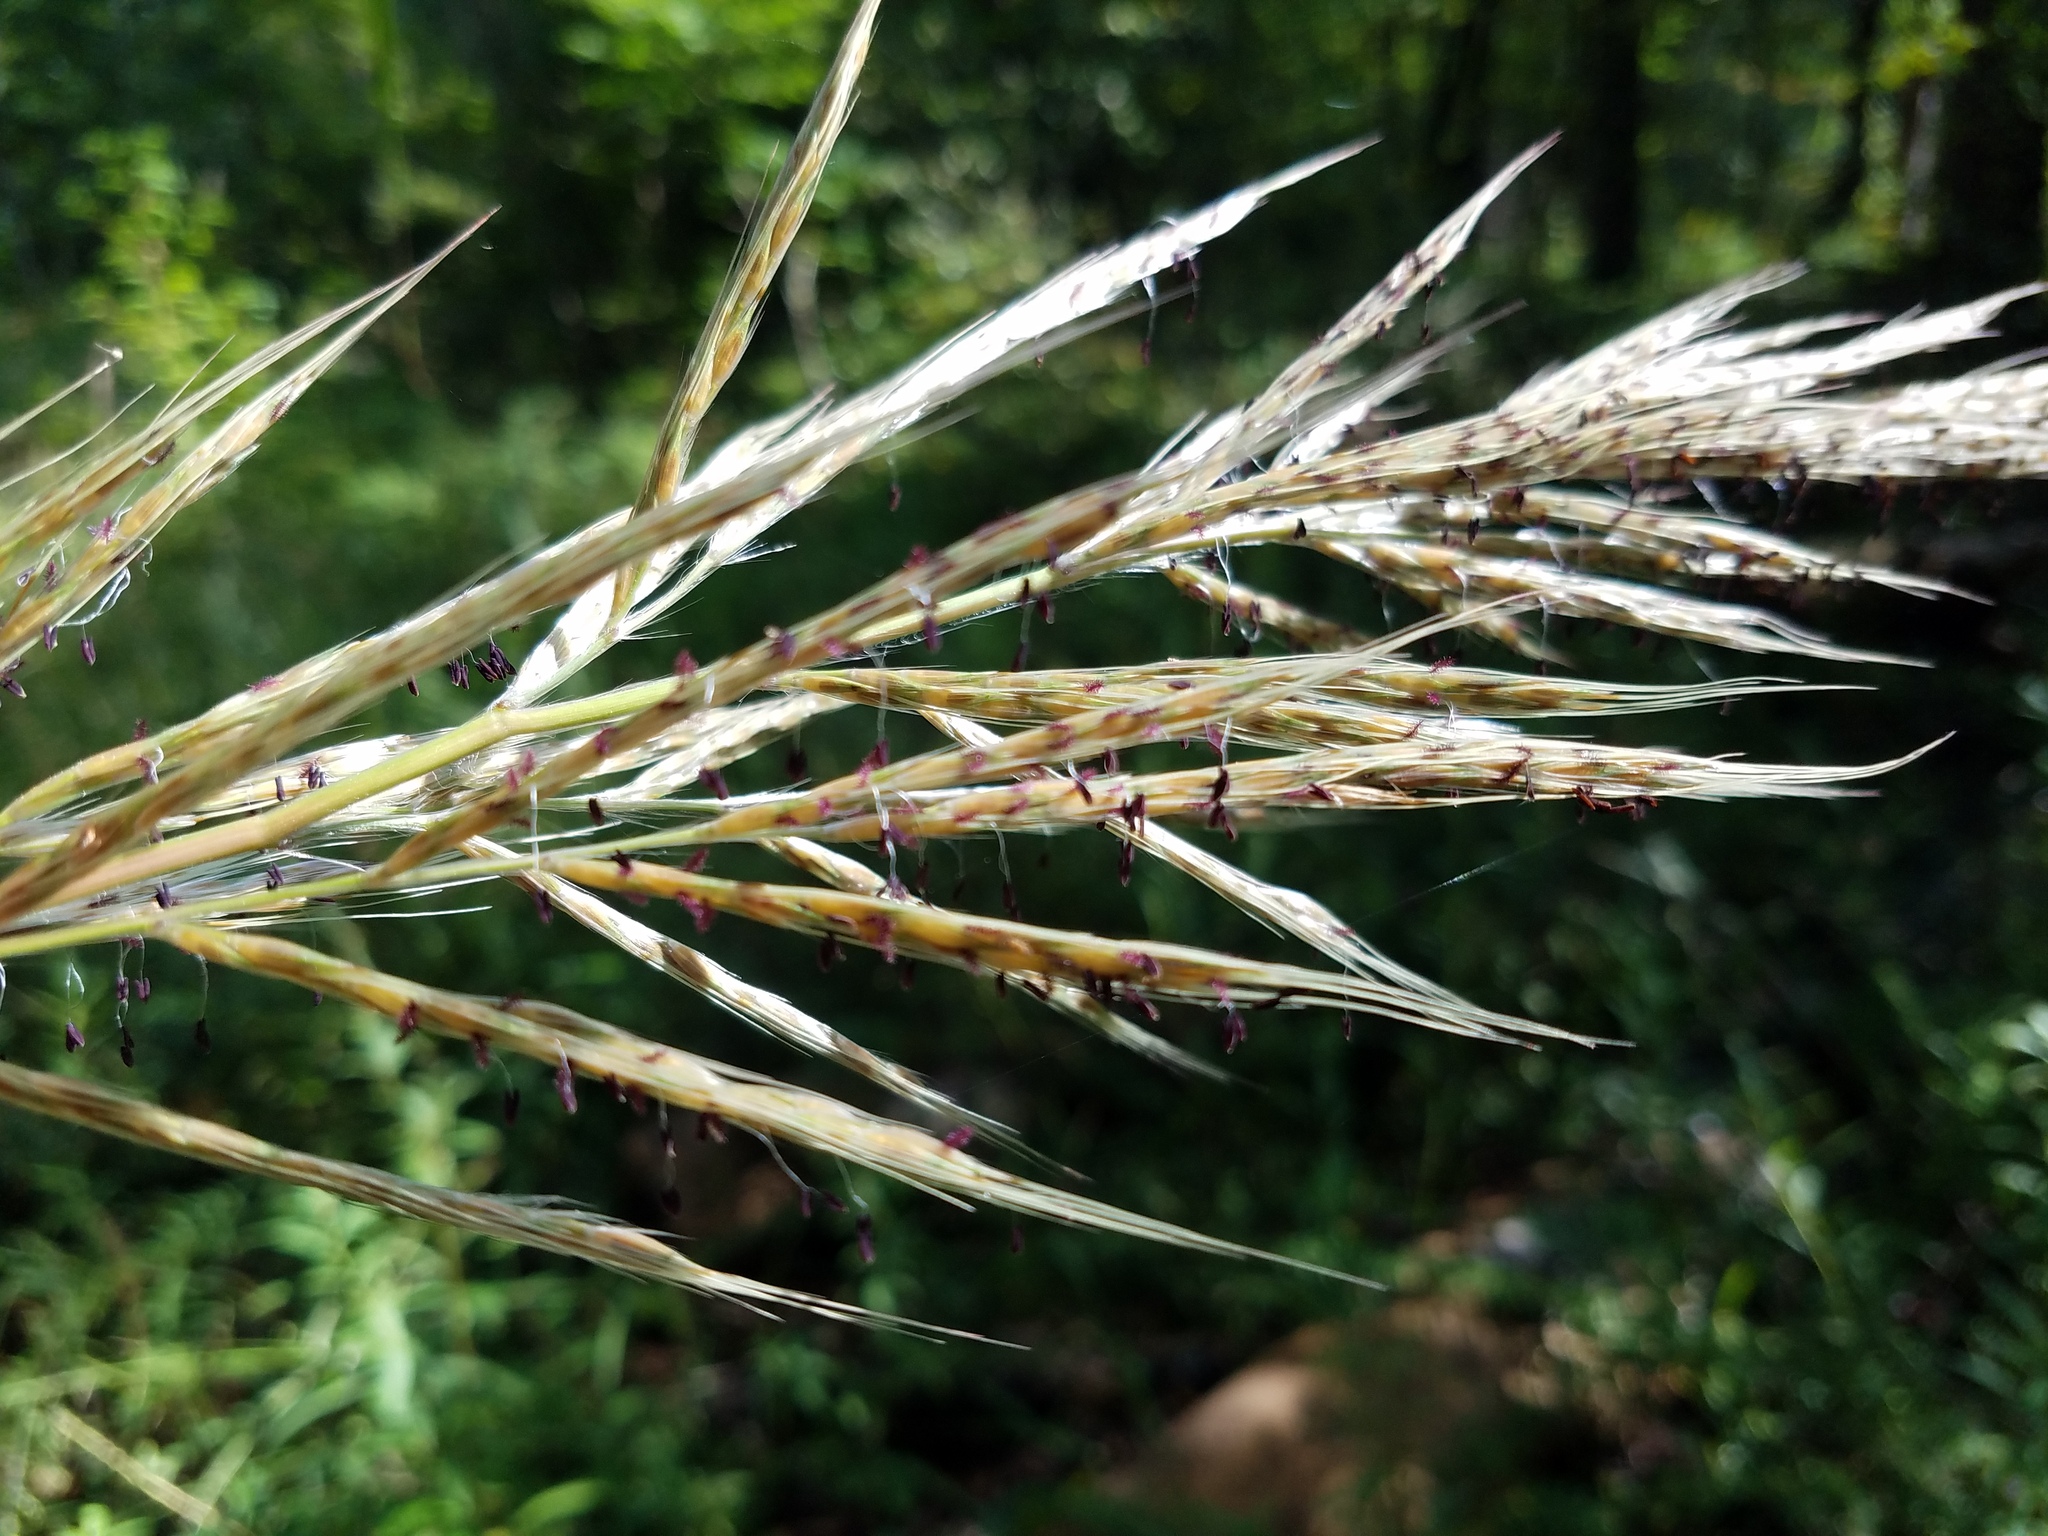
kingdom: Plantae
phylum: Tracheophyta
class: Liliopsida
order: Poales
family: Poaceae
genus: Erianthus
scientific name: Erianthus alopecuroides
